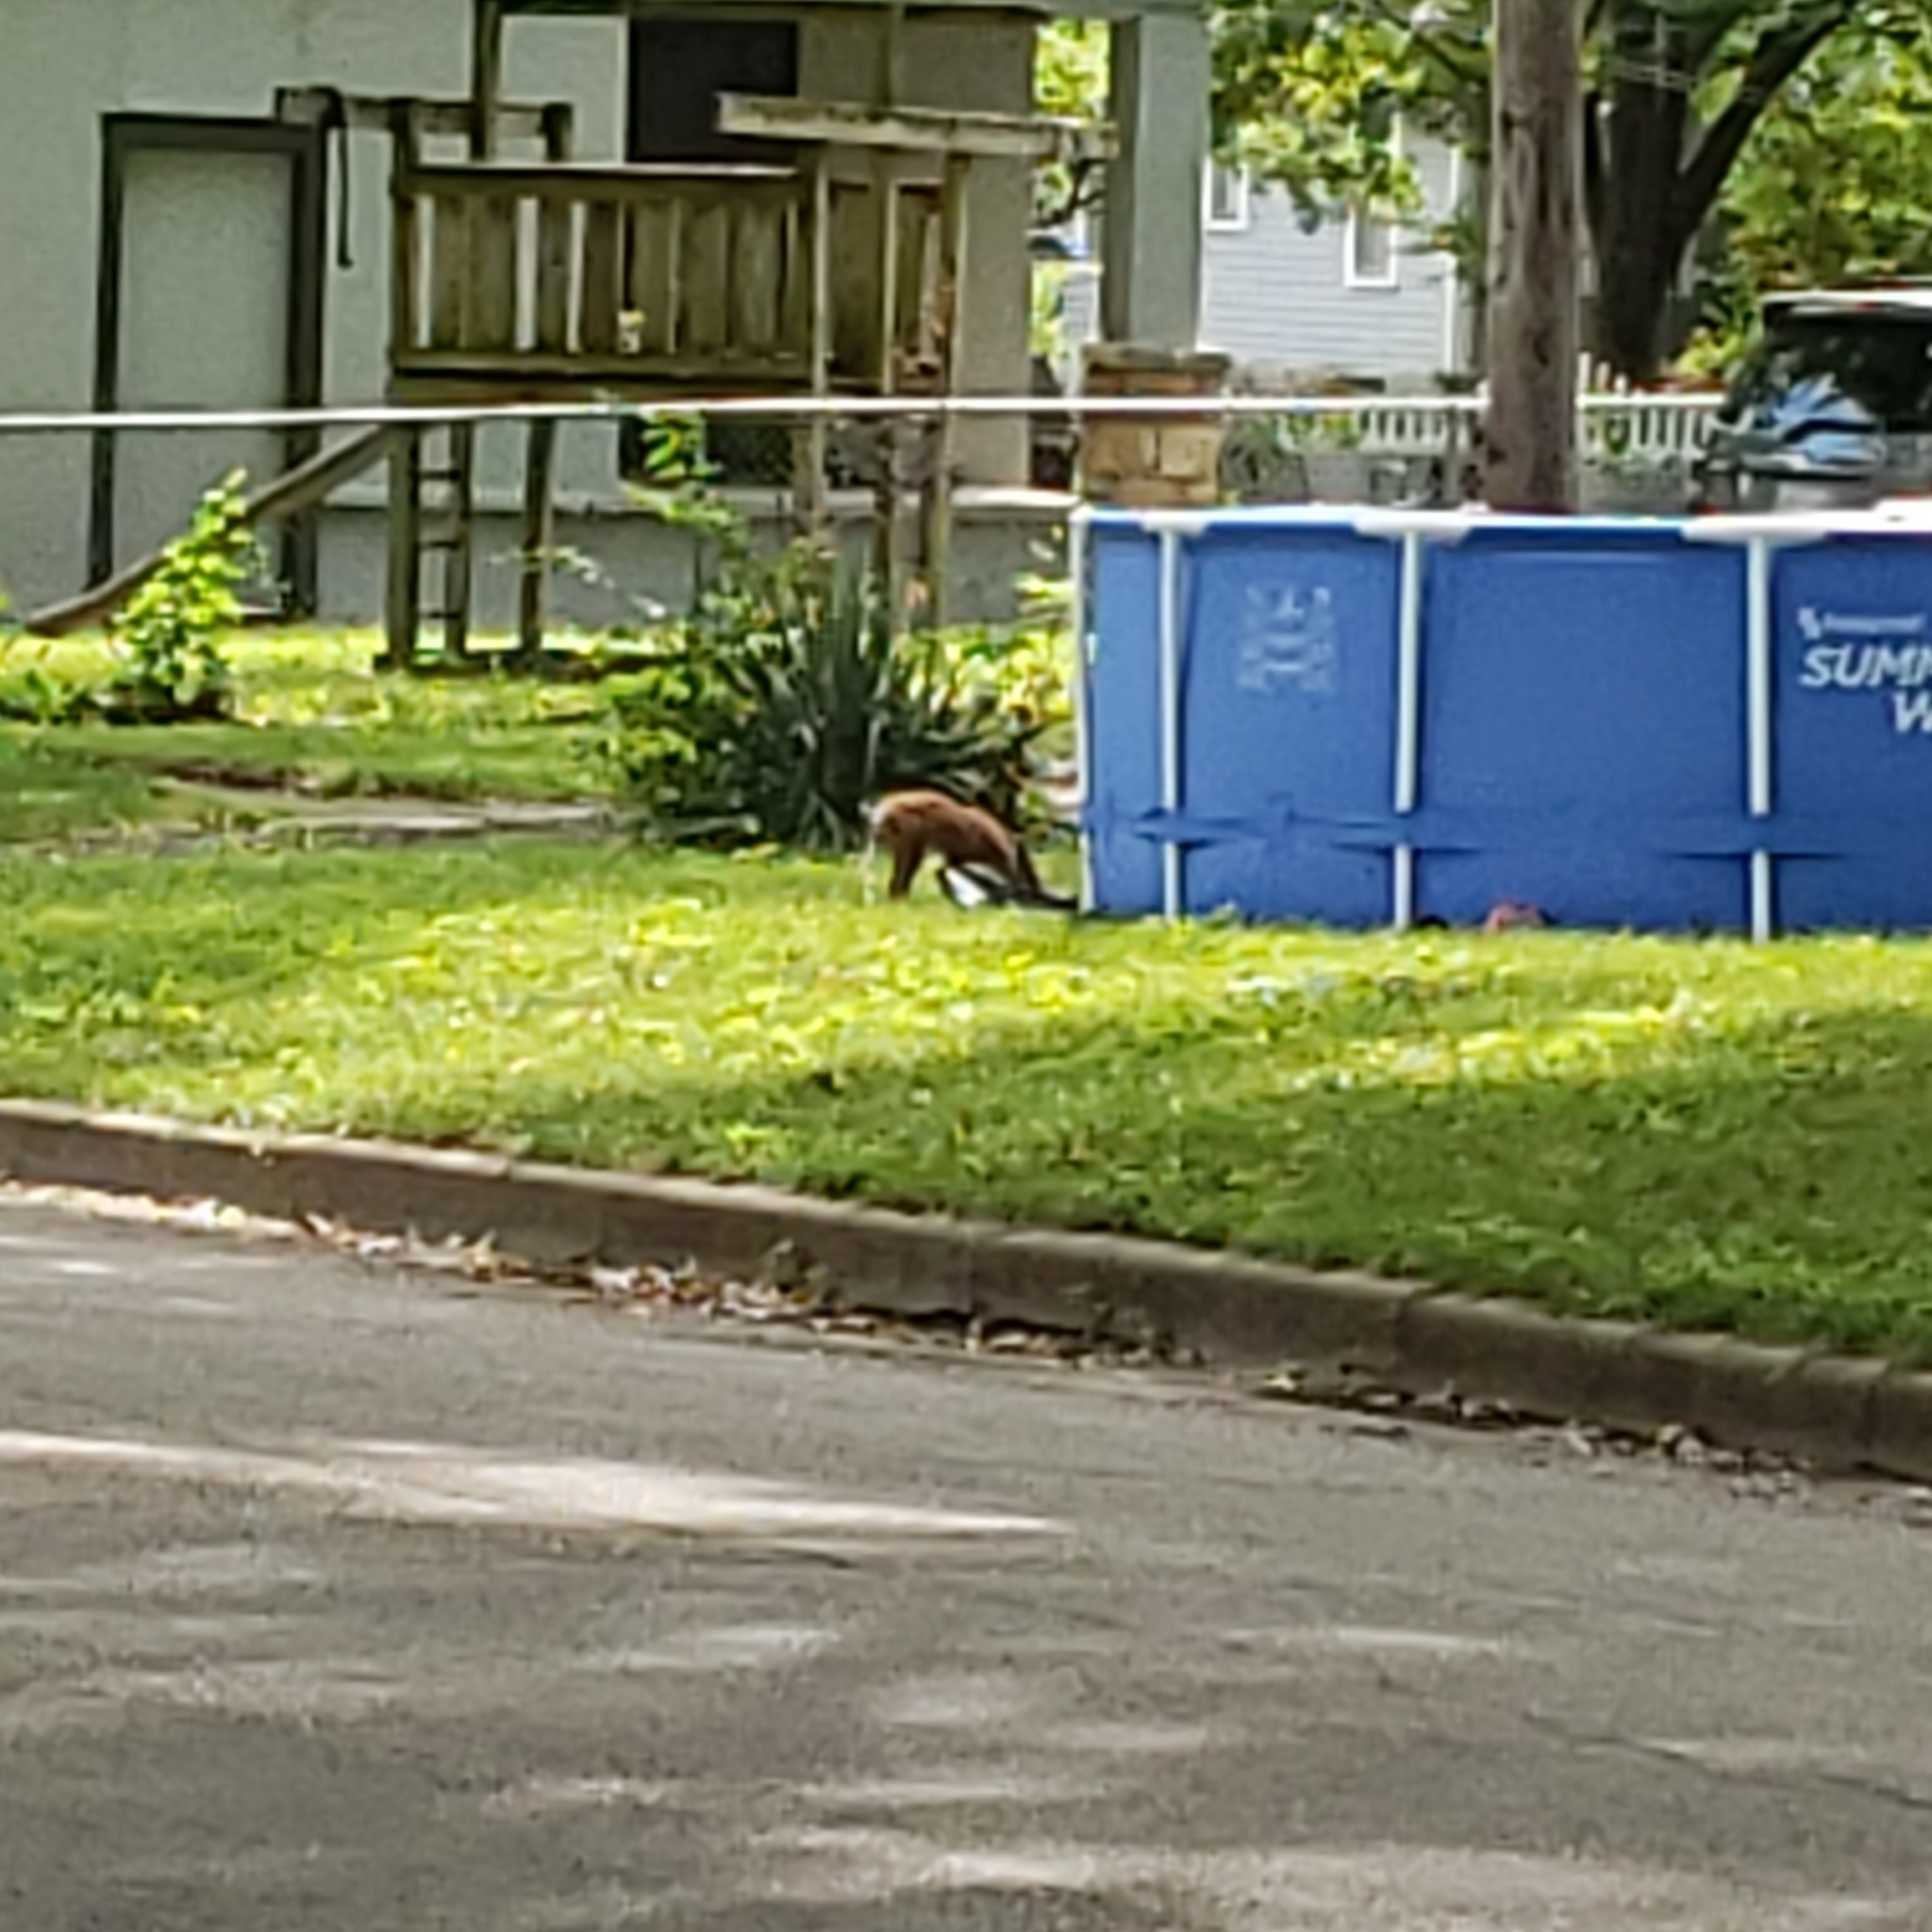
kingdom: Animalia
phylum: Chordata
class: Mammalia
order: Carnivora
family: Canidae
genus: Vulpes
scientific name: Vulpes vulpes
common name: Red fox
